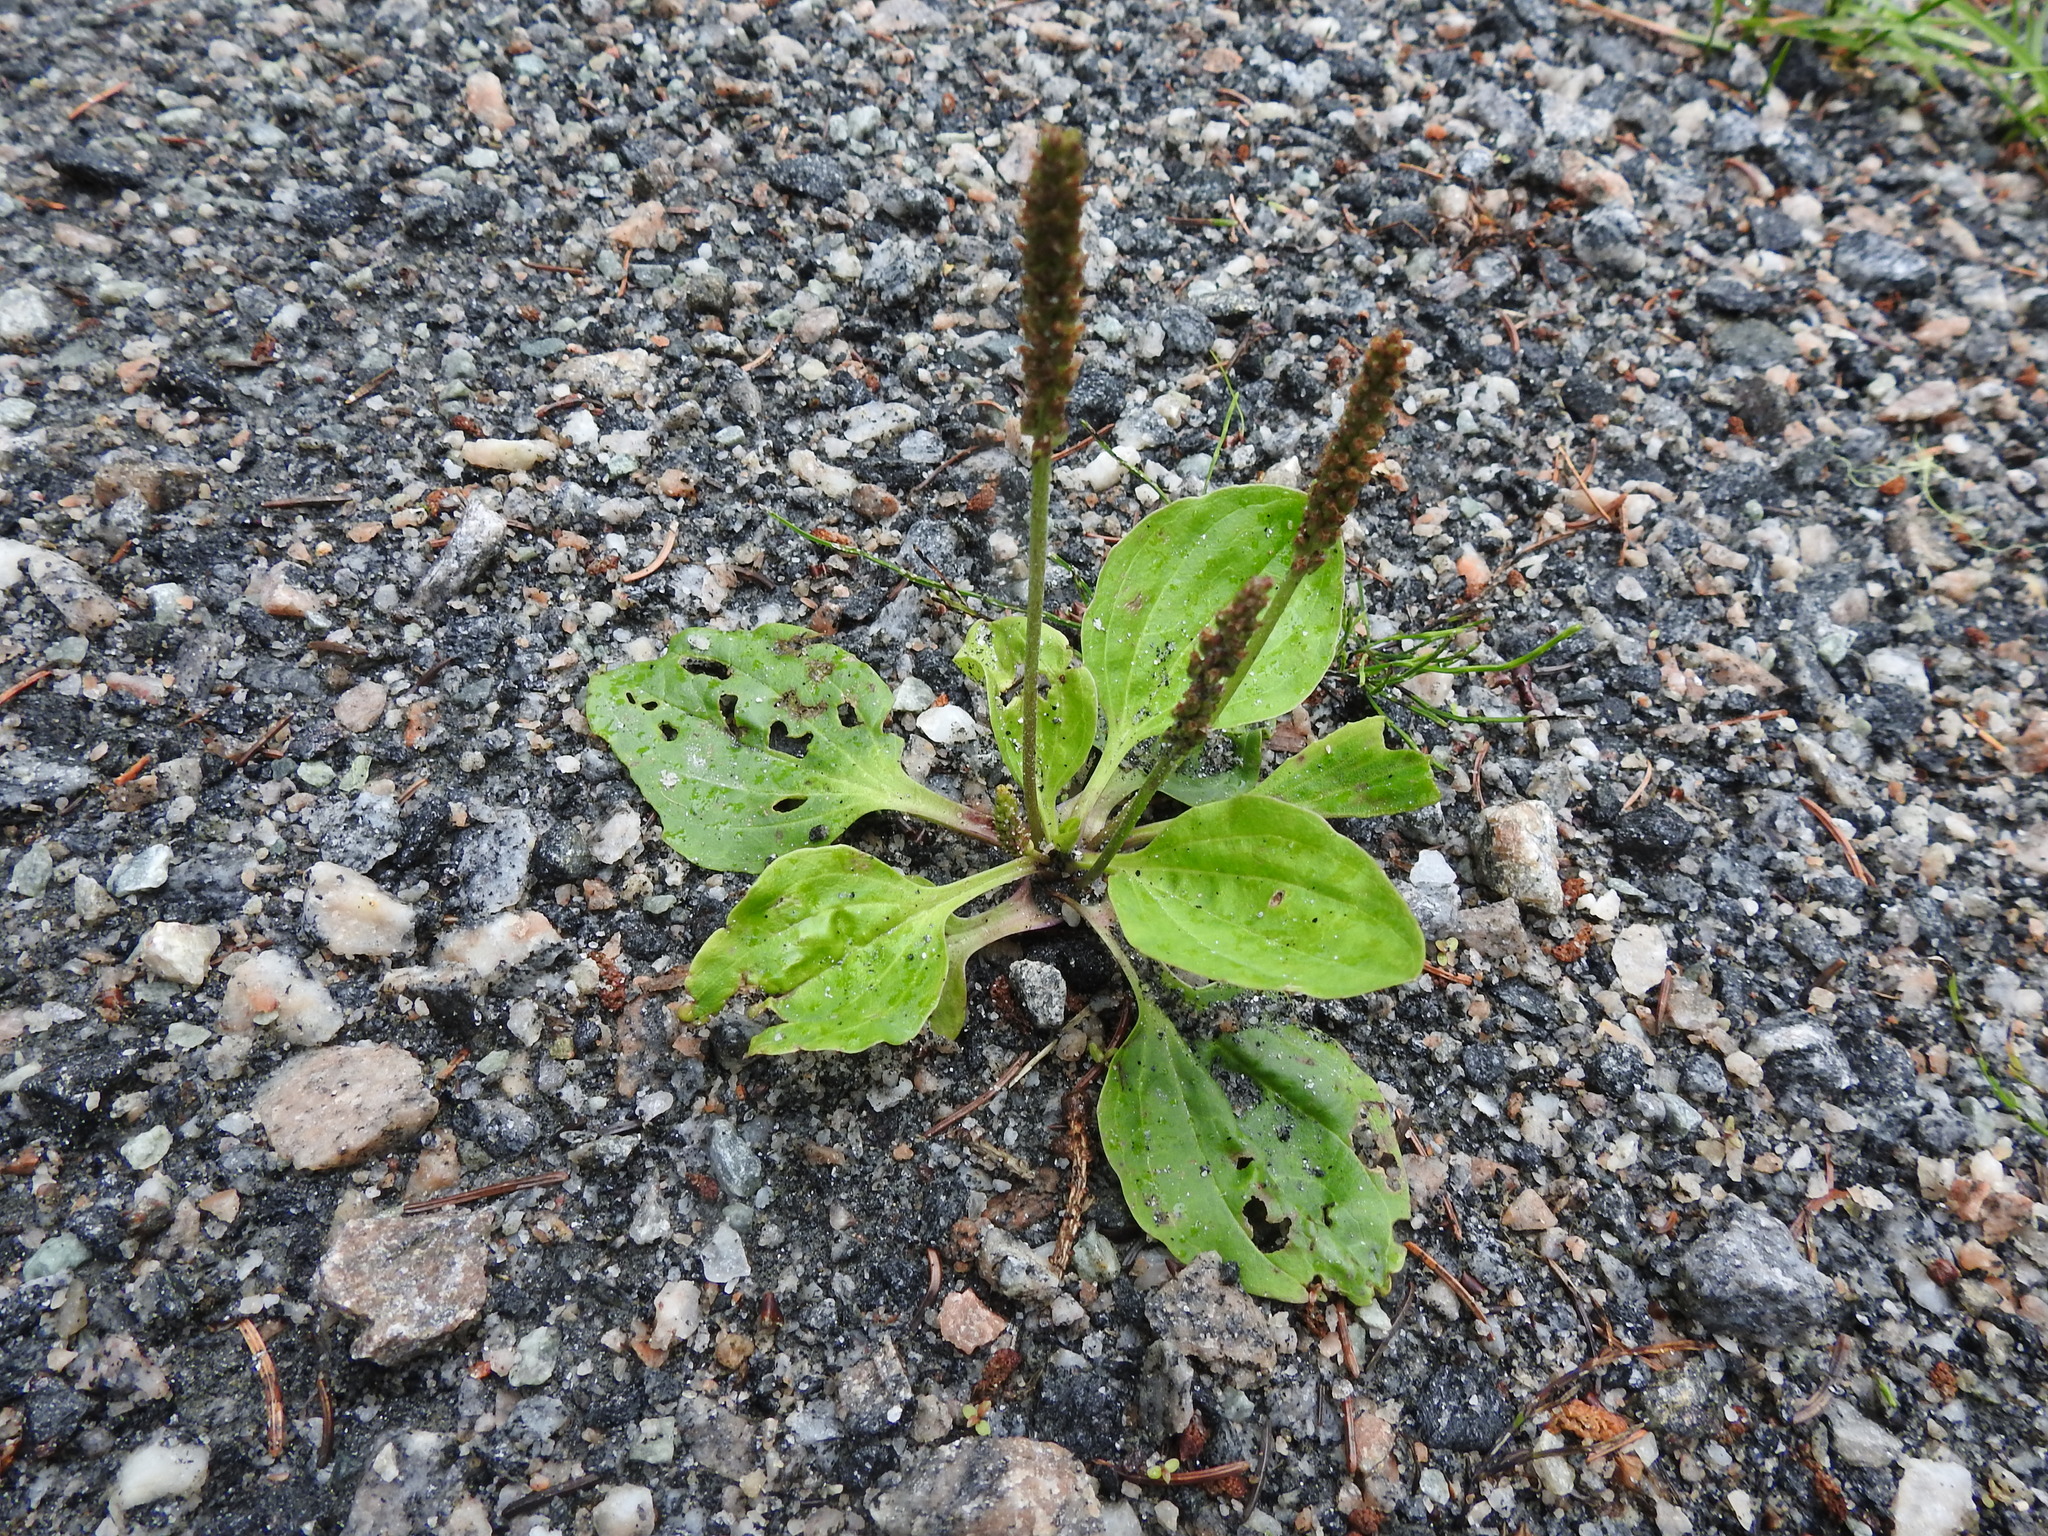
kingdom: Plantae
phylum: Tracheophyta
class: Magnoliopsida
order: Lamiales
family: Plantaginaceae
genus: Plantago
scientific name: Plantago major
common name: Common plantain
